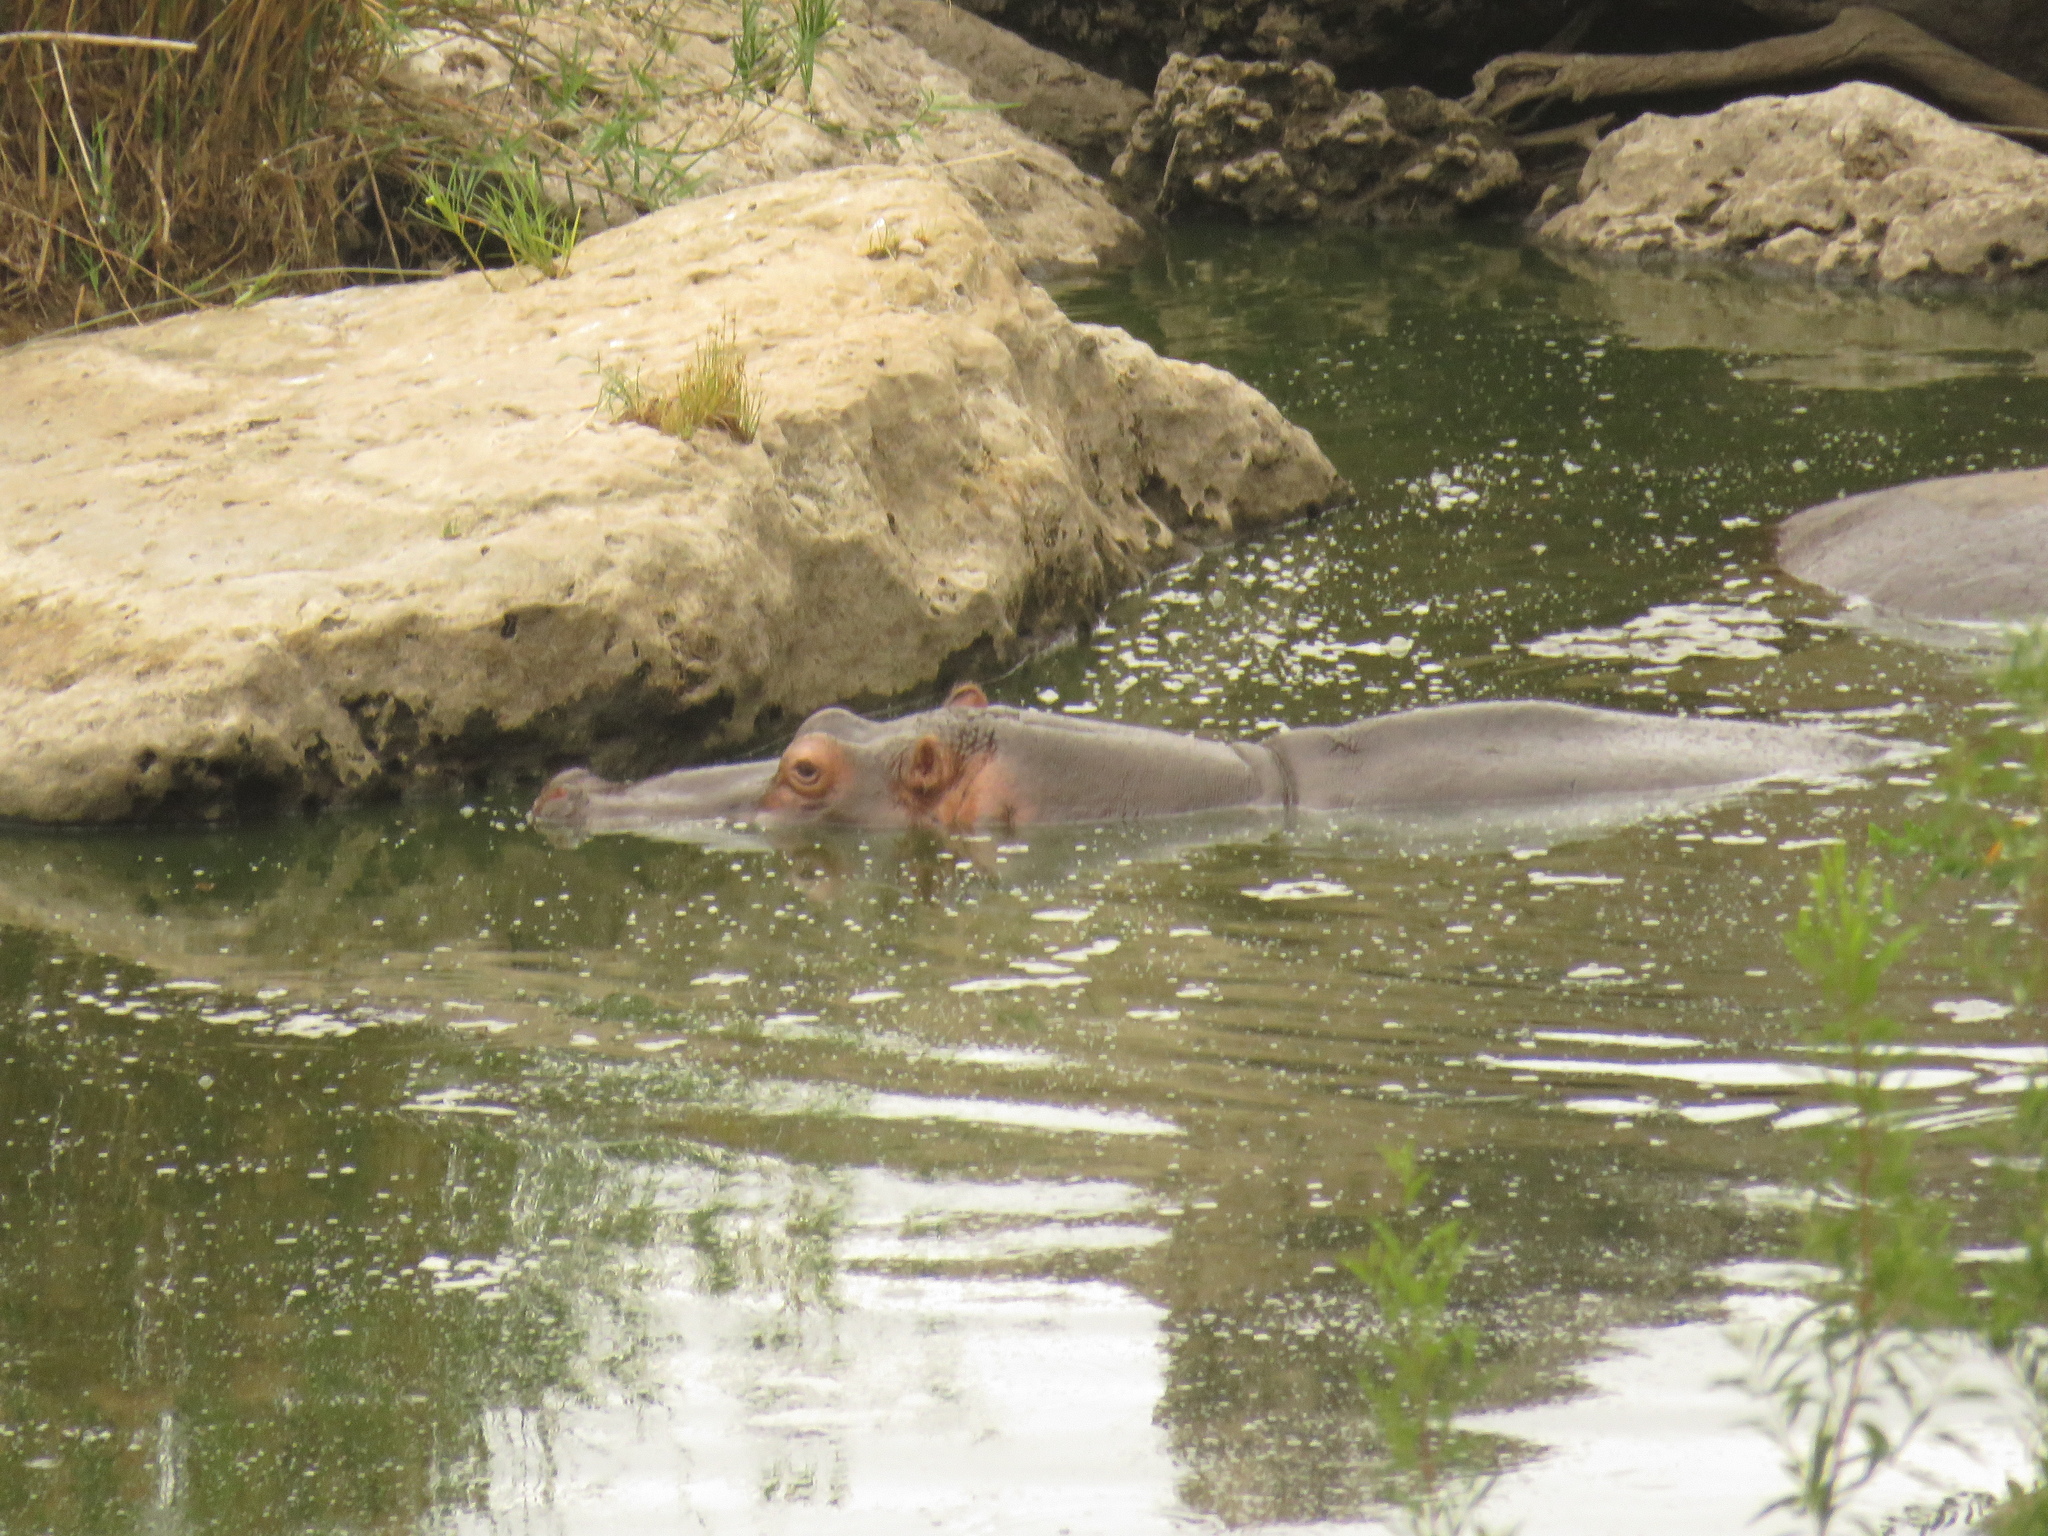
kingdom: Animalia
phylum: Chordata
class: Mammalia
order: Artiodactyla
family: Hippopotamidae
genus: Hippopotamus
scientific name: Hippopotamus amphibius
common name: Common hippopotamus
